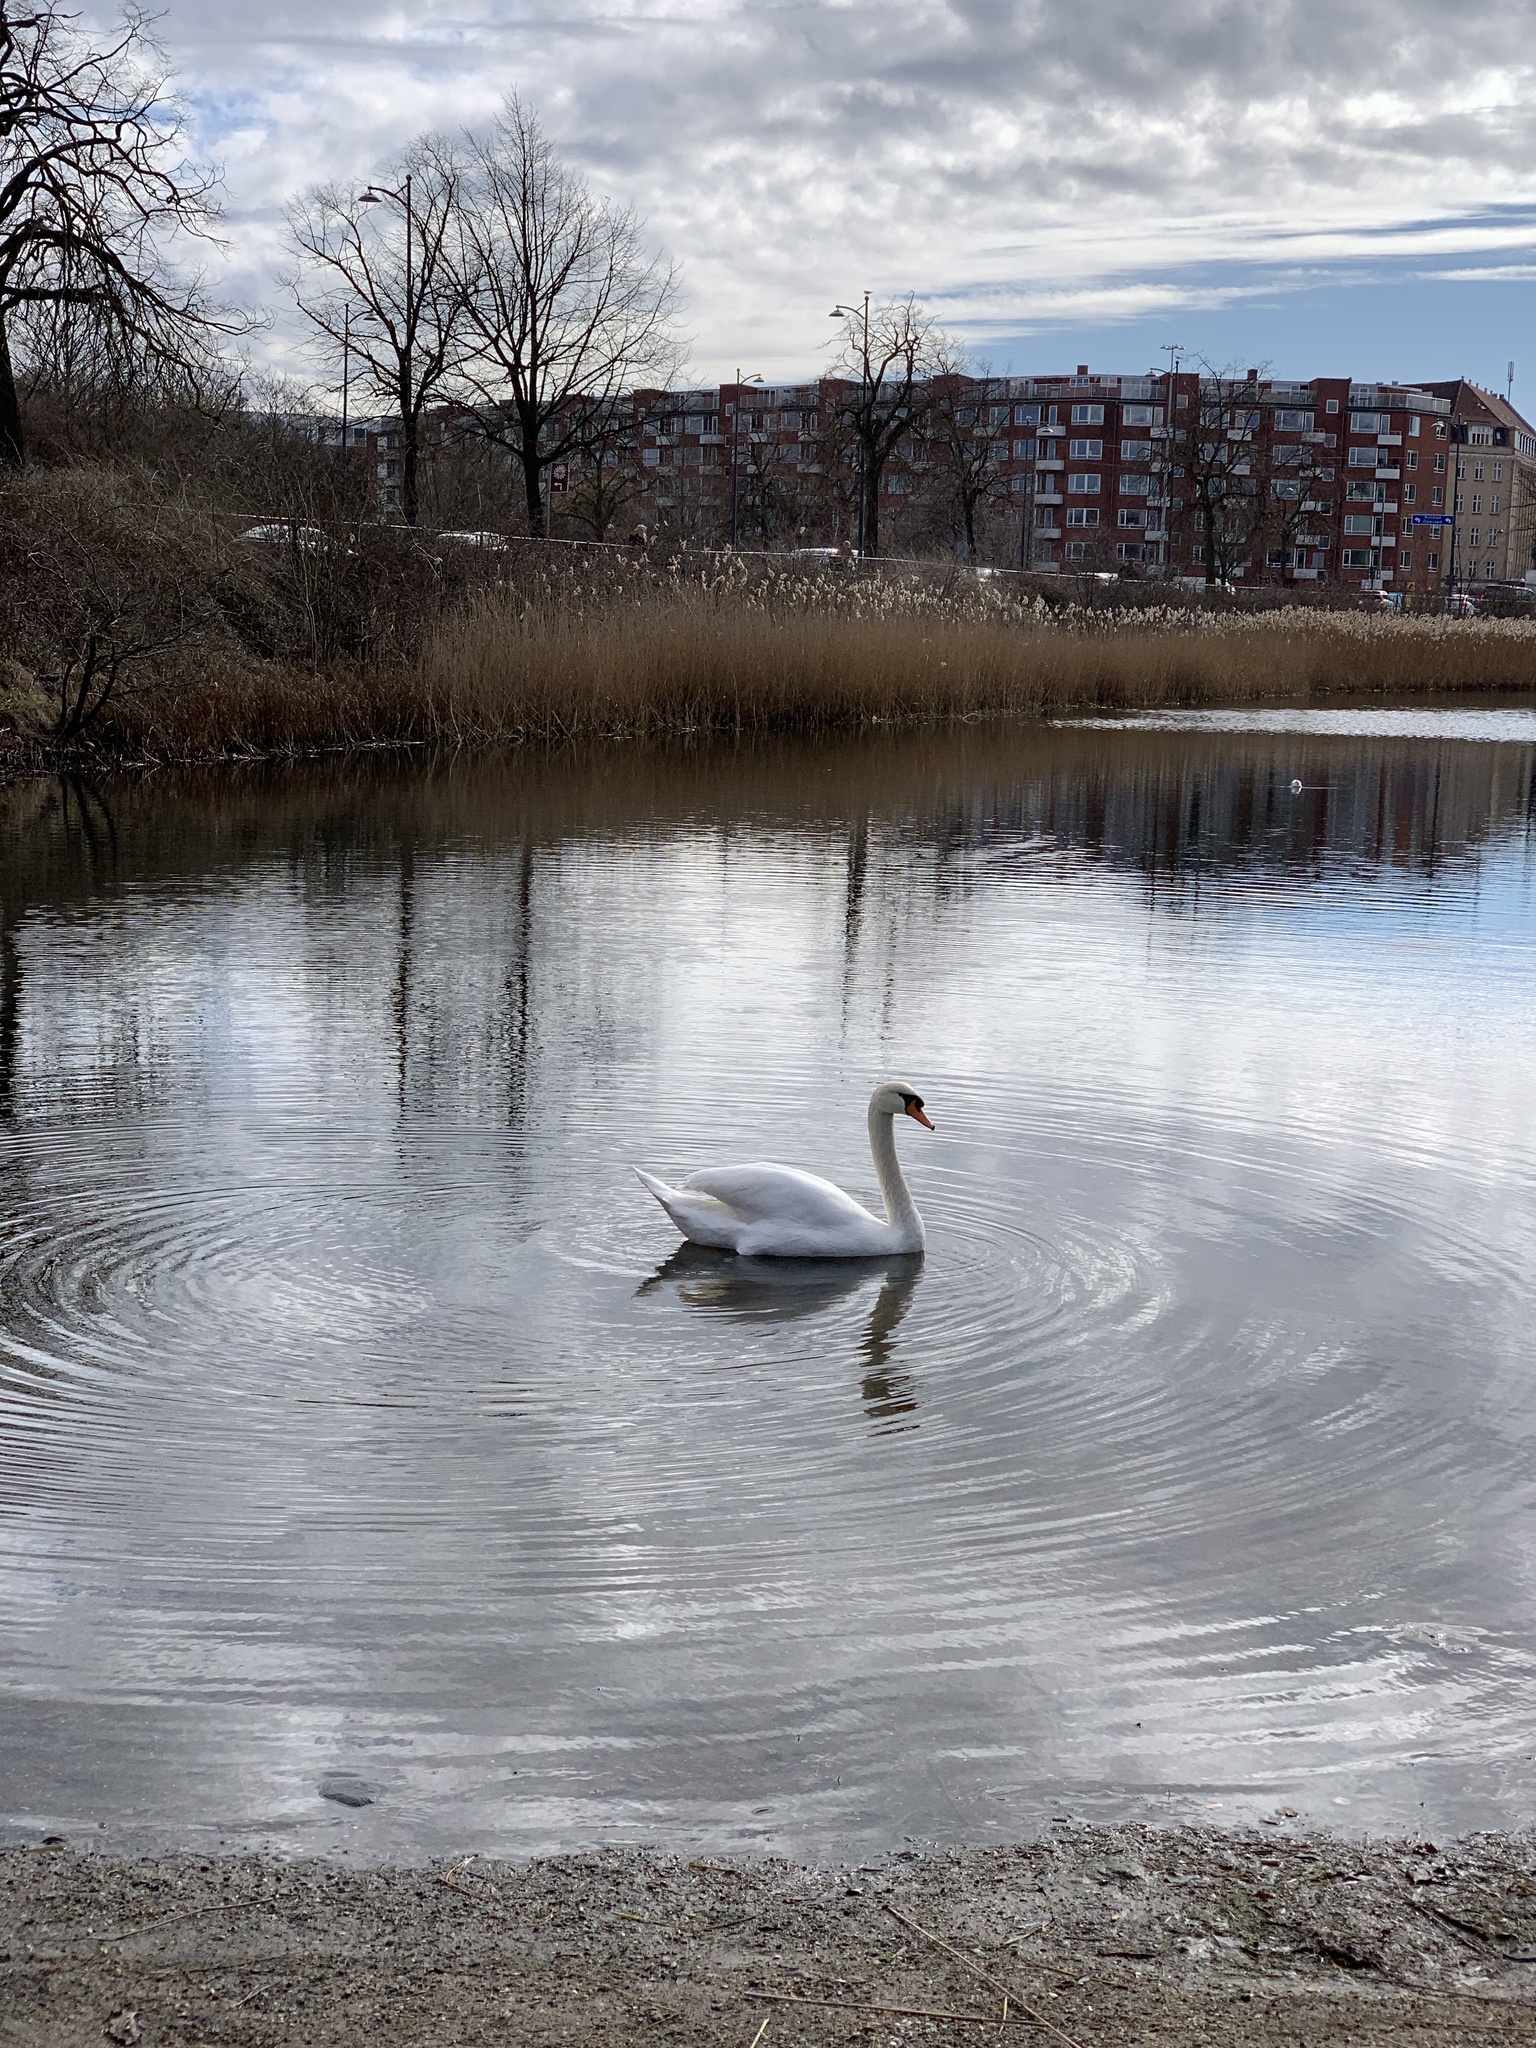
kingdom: Animalia
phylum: Chordata
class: Aves
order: Anseriformes
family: Anatidae
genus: Cygnus
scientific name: Cygnus olor
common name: Mute swan
